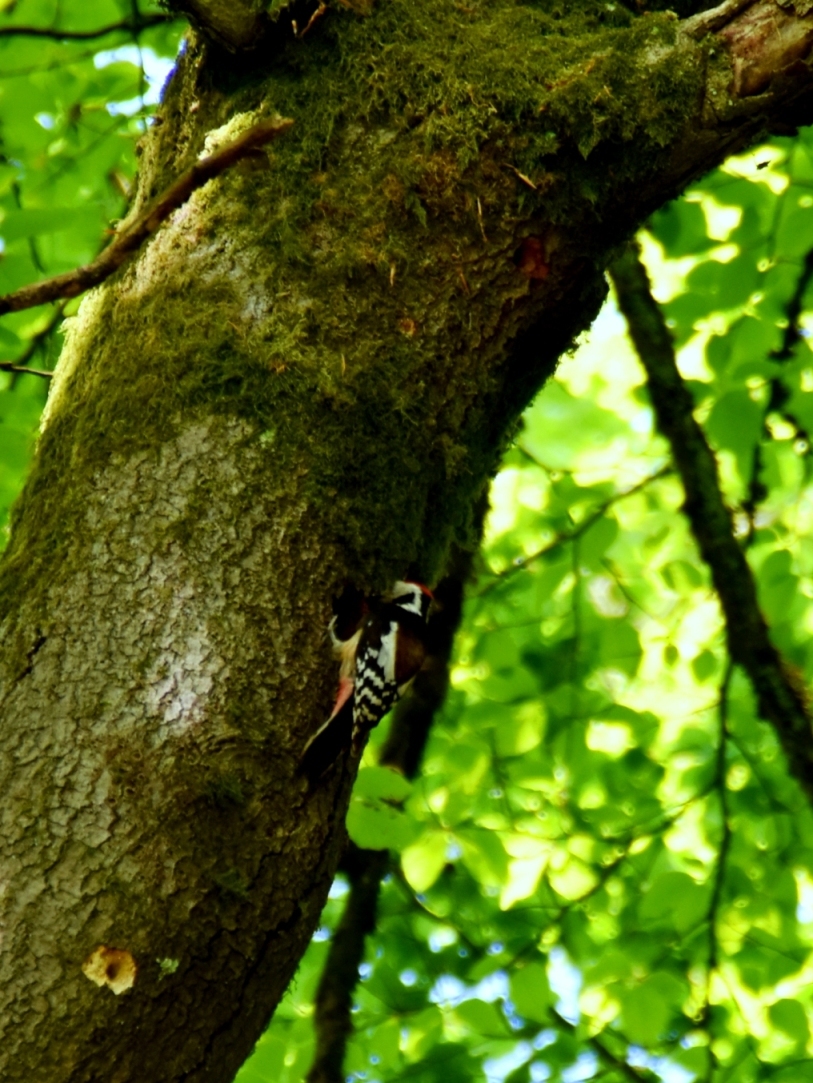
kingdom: Animalia
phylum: Chordata
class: Aves
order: Piciformes
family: Picidae
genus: Dendrocoptes
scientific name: Dendrocoptes medius
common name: Middle spotted woodpecker
